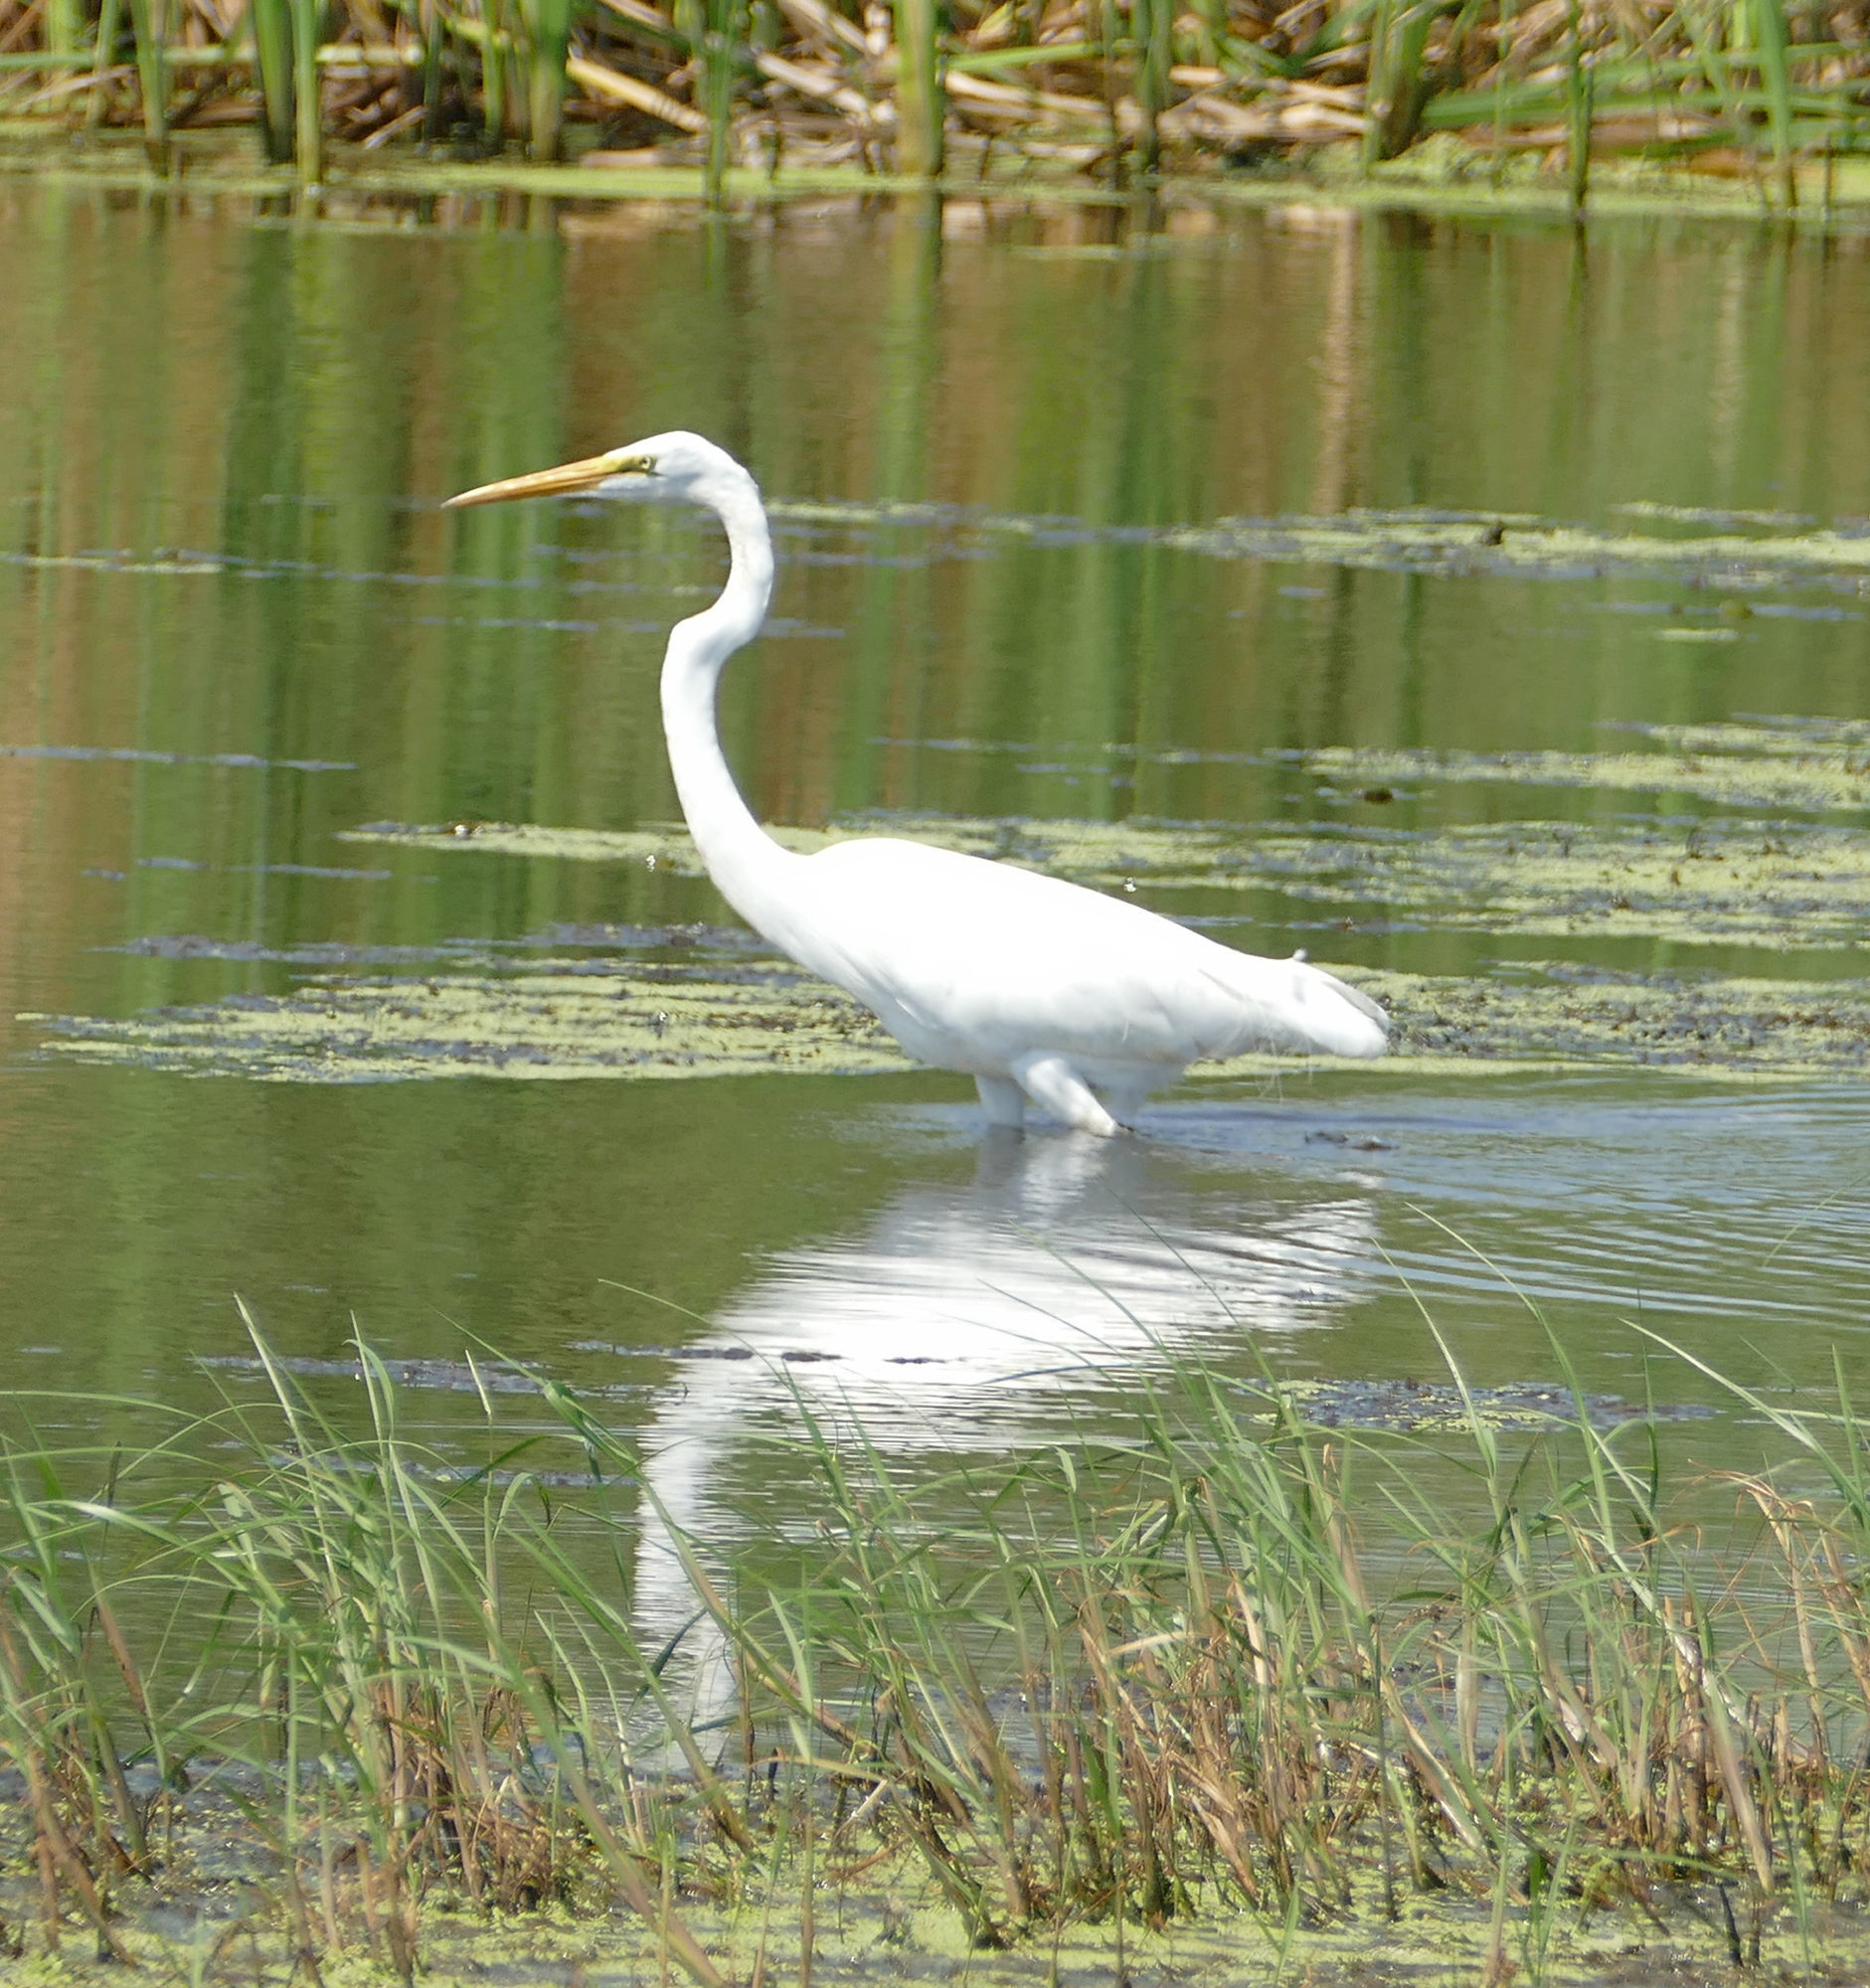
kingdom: Animalia
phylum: Chordata
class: Aves
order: Pelecaniformes
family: Ardeidae
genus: Ardea
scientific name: Ardea alba
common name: Great egret
